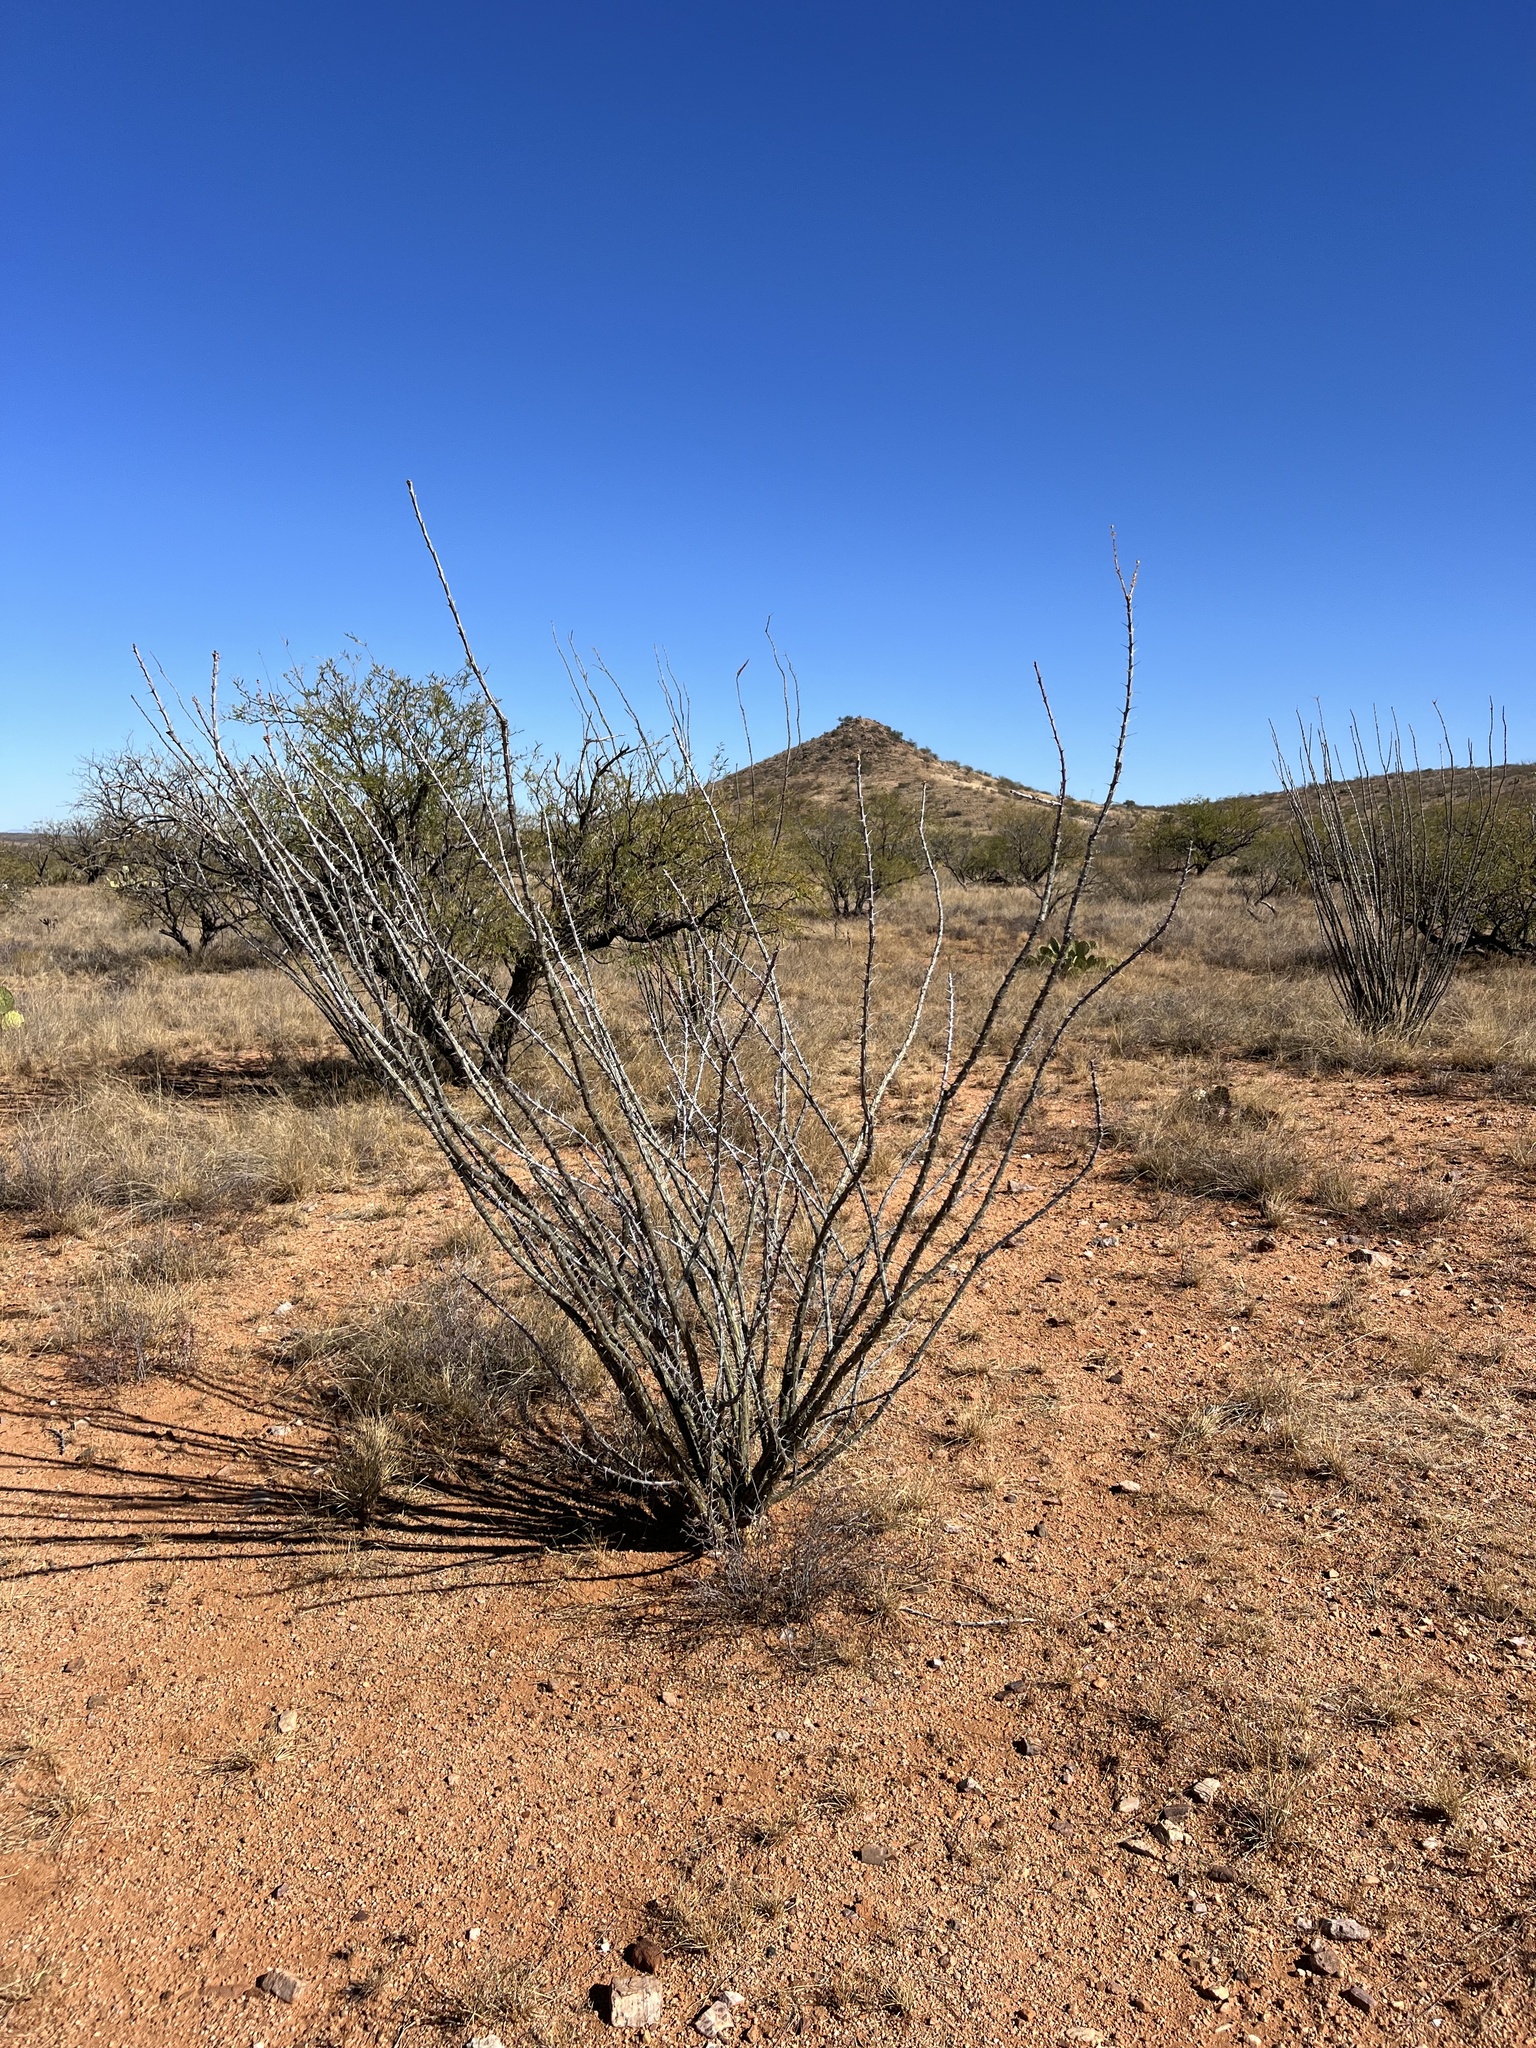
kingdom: Plantae
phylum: Tracheophyta
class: Magnoliopsida
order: Ericales
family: Fouquieriaceae
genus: Fouquieria
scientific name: Fouquieria splendens
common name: Vine-cactus
